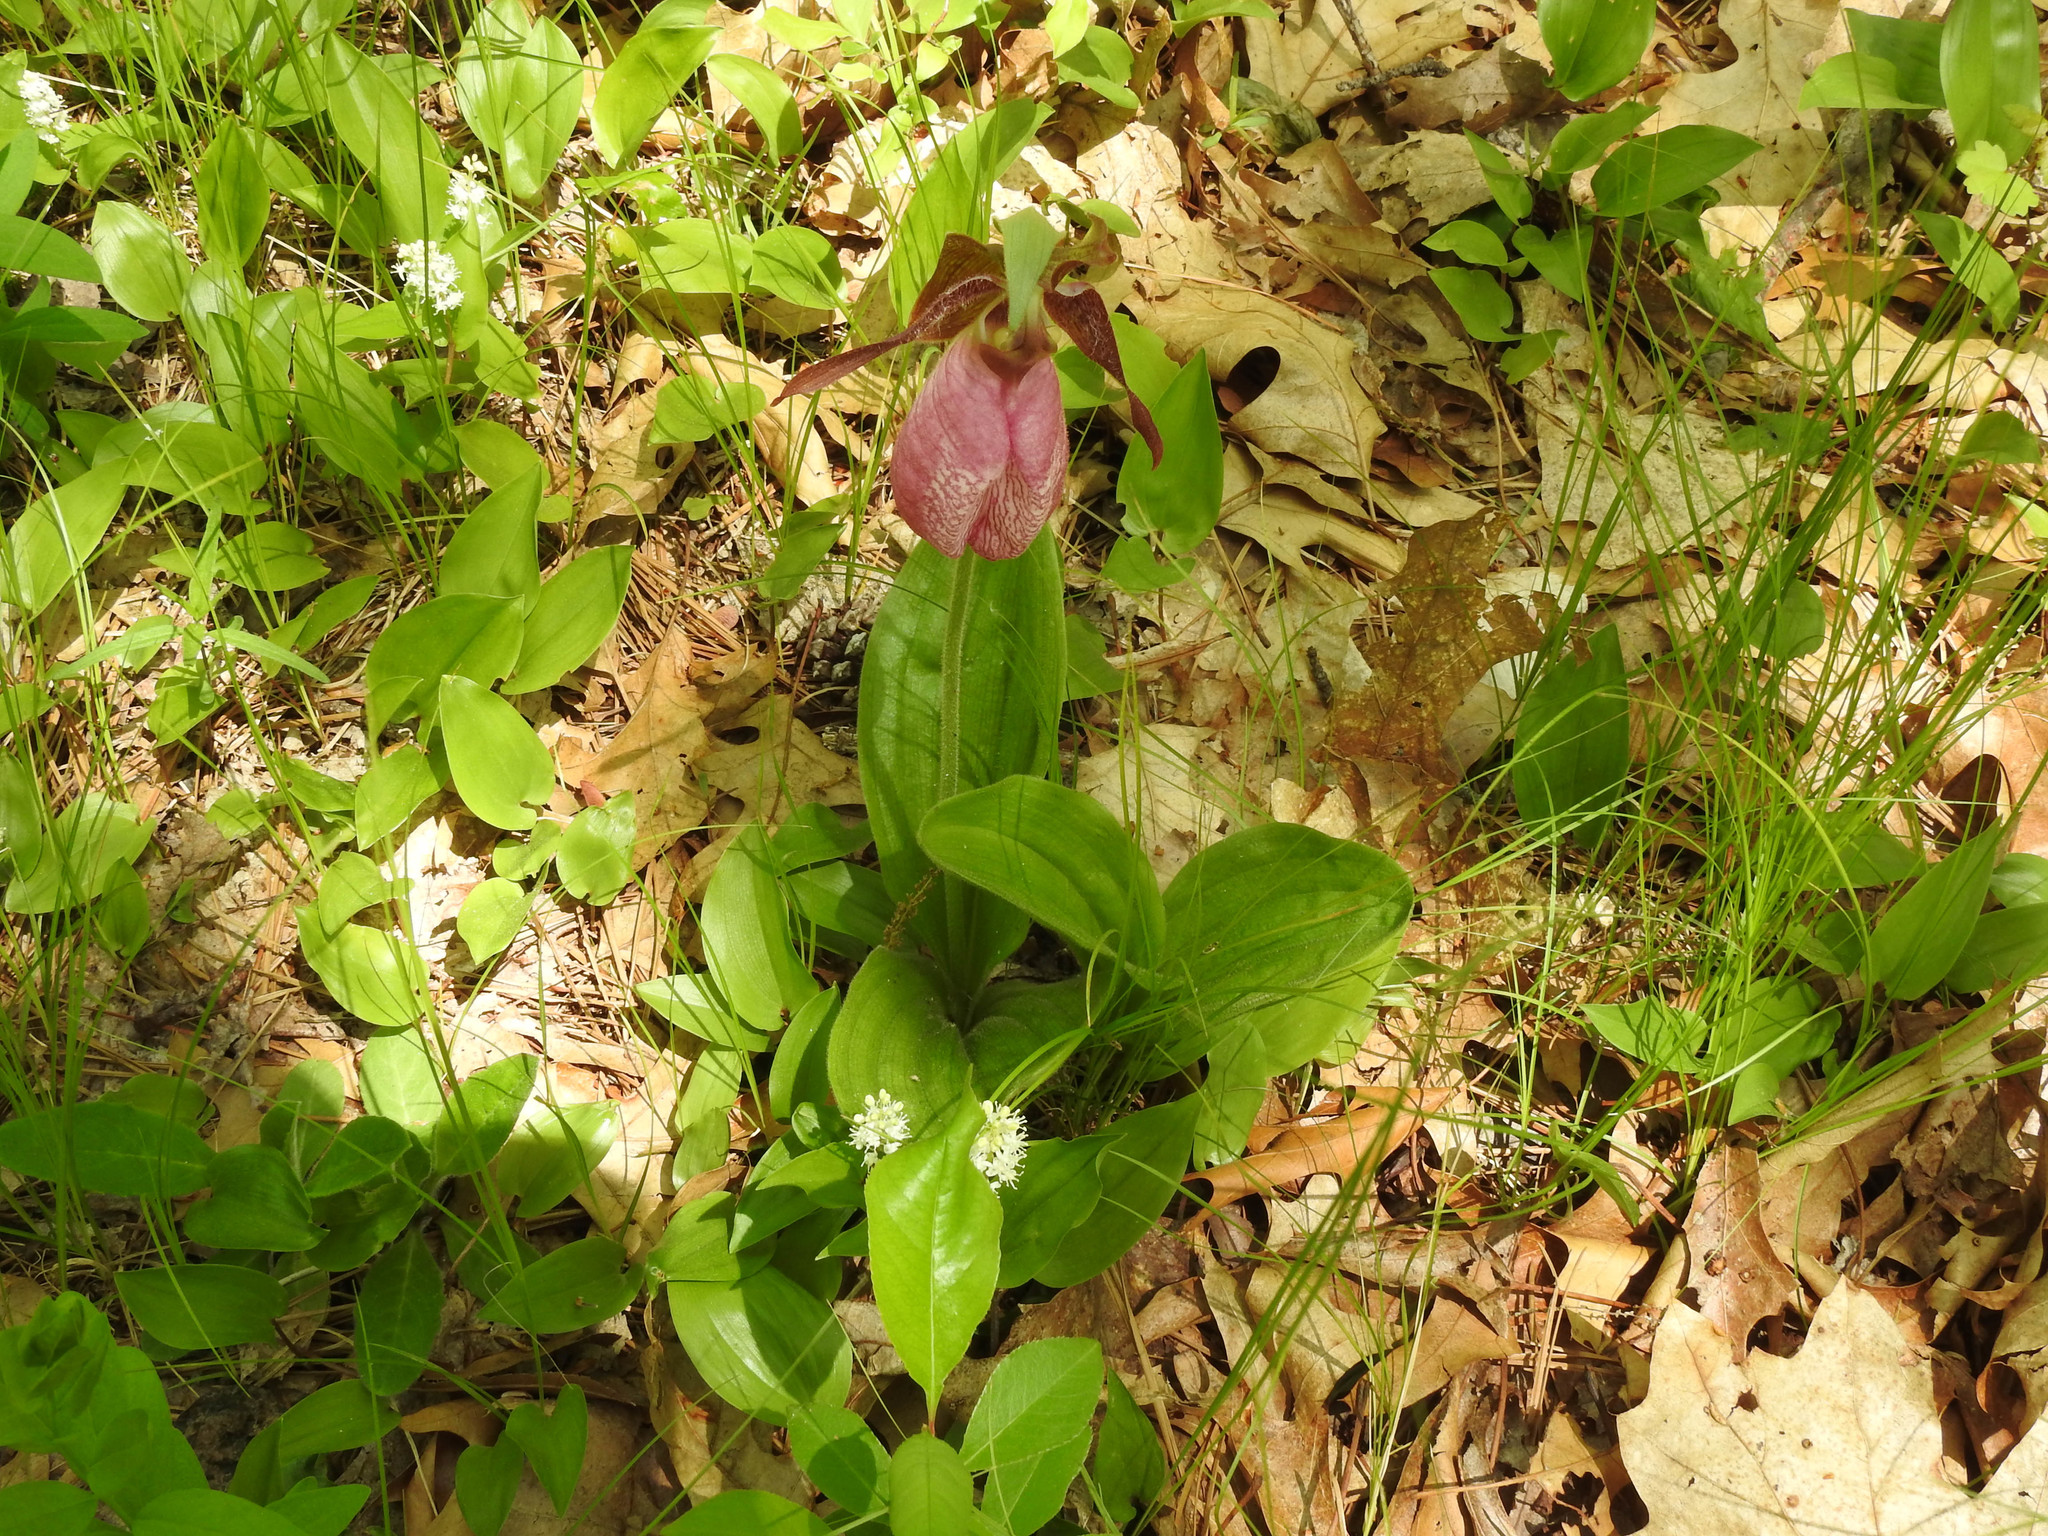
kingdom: Plantae
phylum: Tracheophyta
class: Liliopsida
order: Asparagales
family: Orchidaceae
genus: Cypripedium
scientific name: Cypripedium acaule
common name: Pink lady's-slipper
